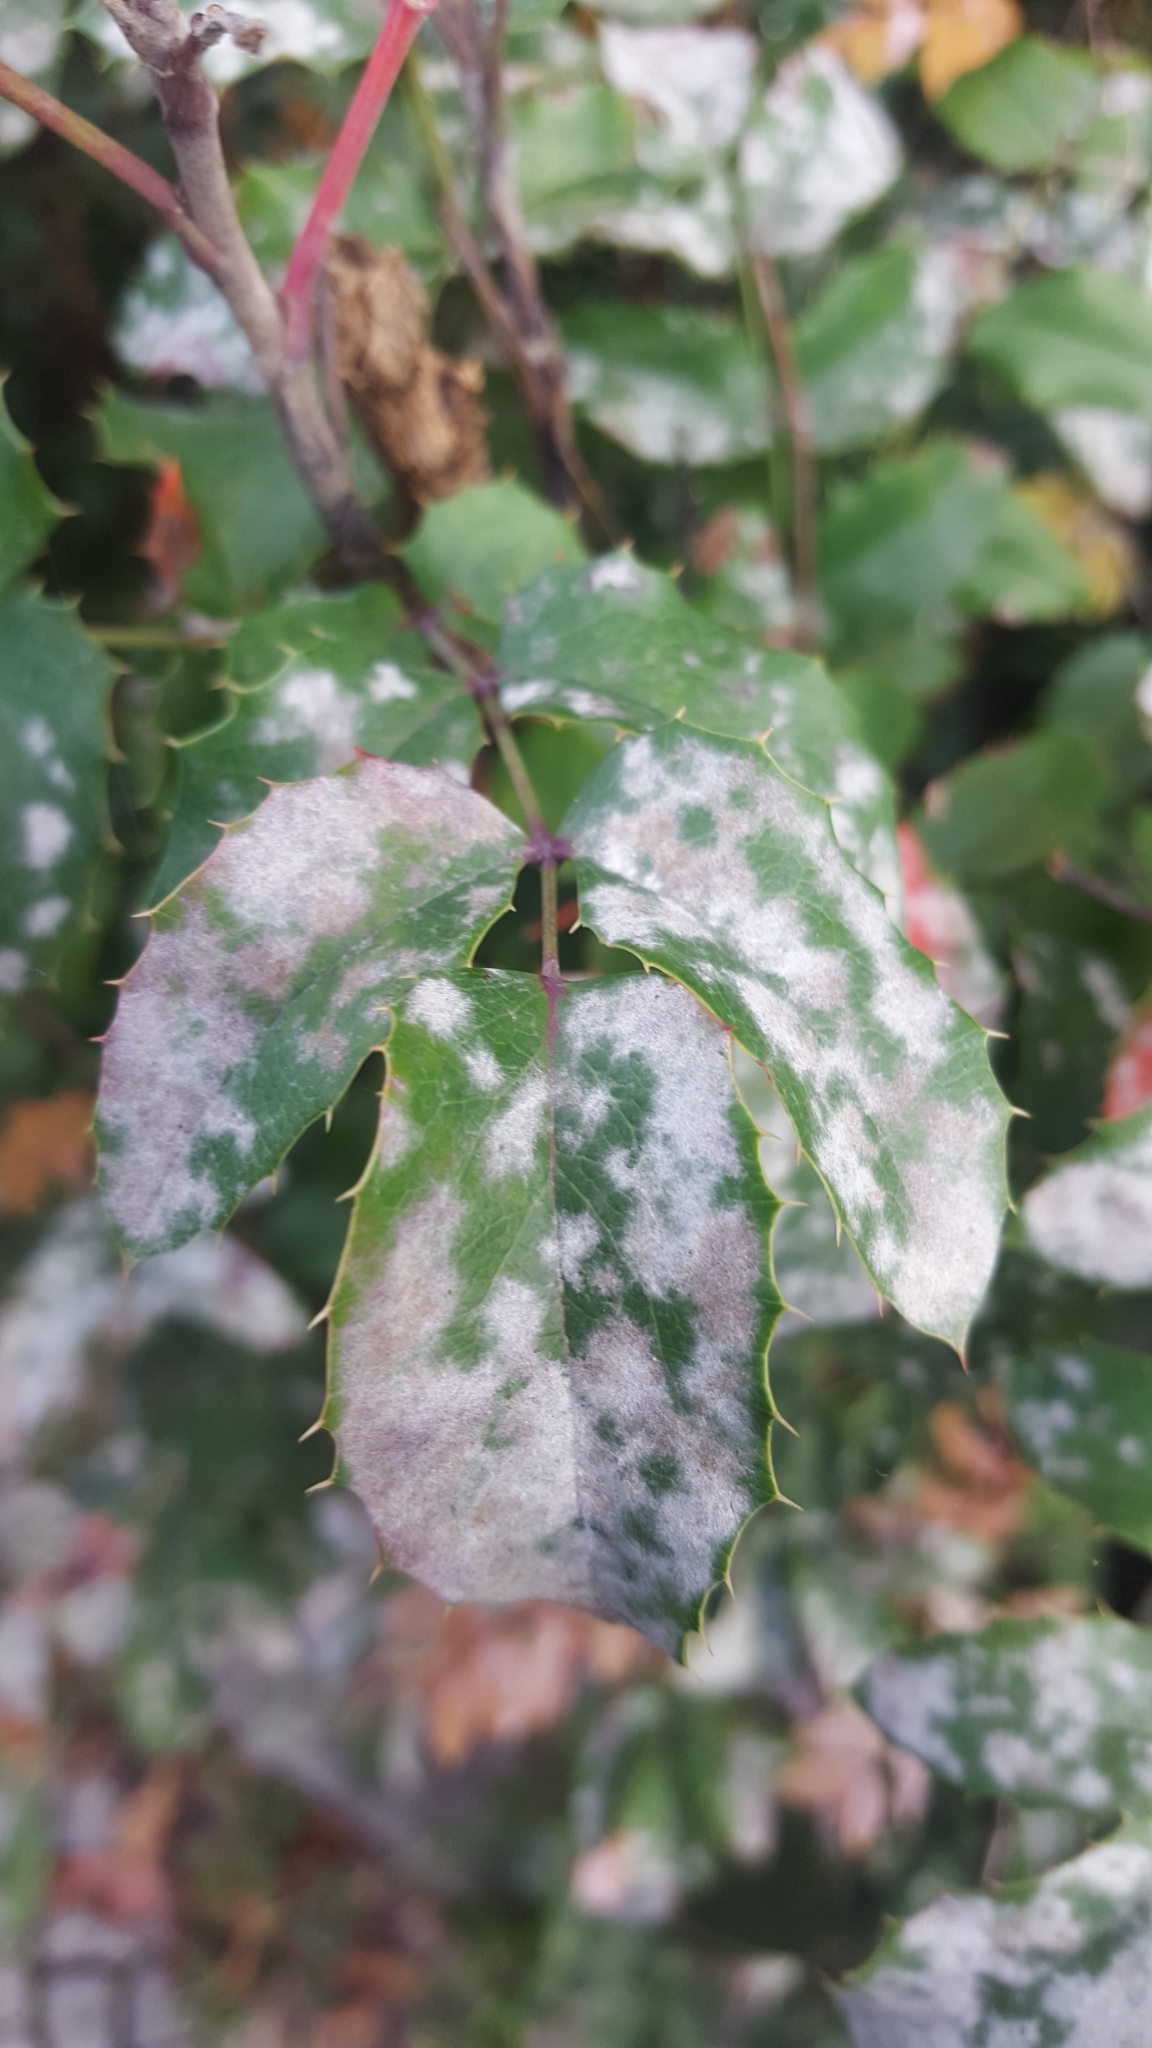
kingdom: Fungi
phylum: Ascomycota
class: Leotiomycetes
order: Helotiales
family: Erysiphaceae
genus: Erysiphe
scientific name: Erysiphe berberidis
